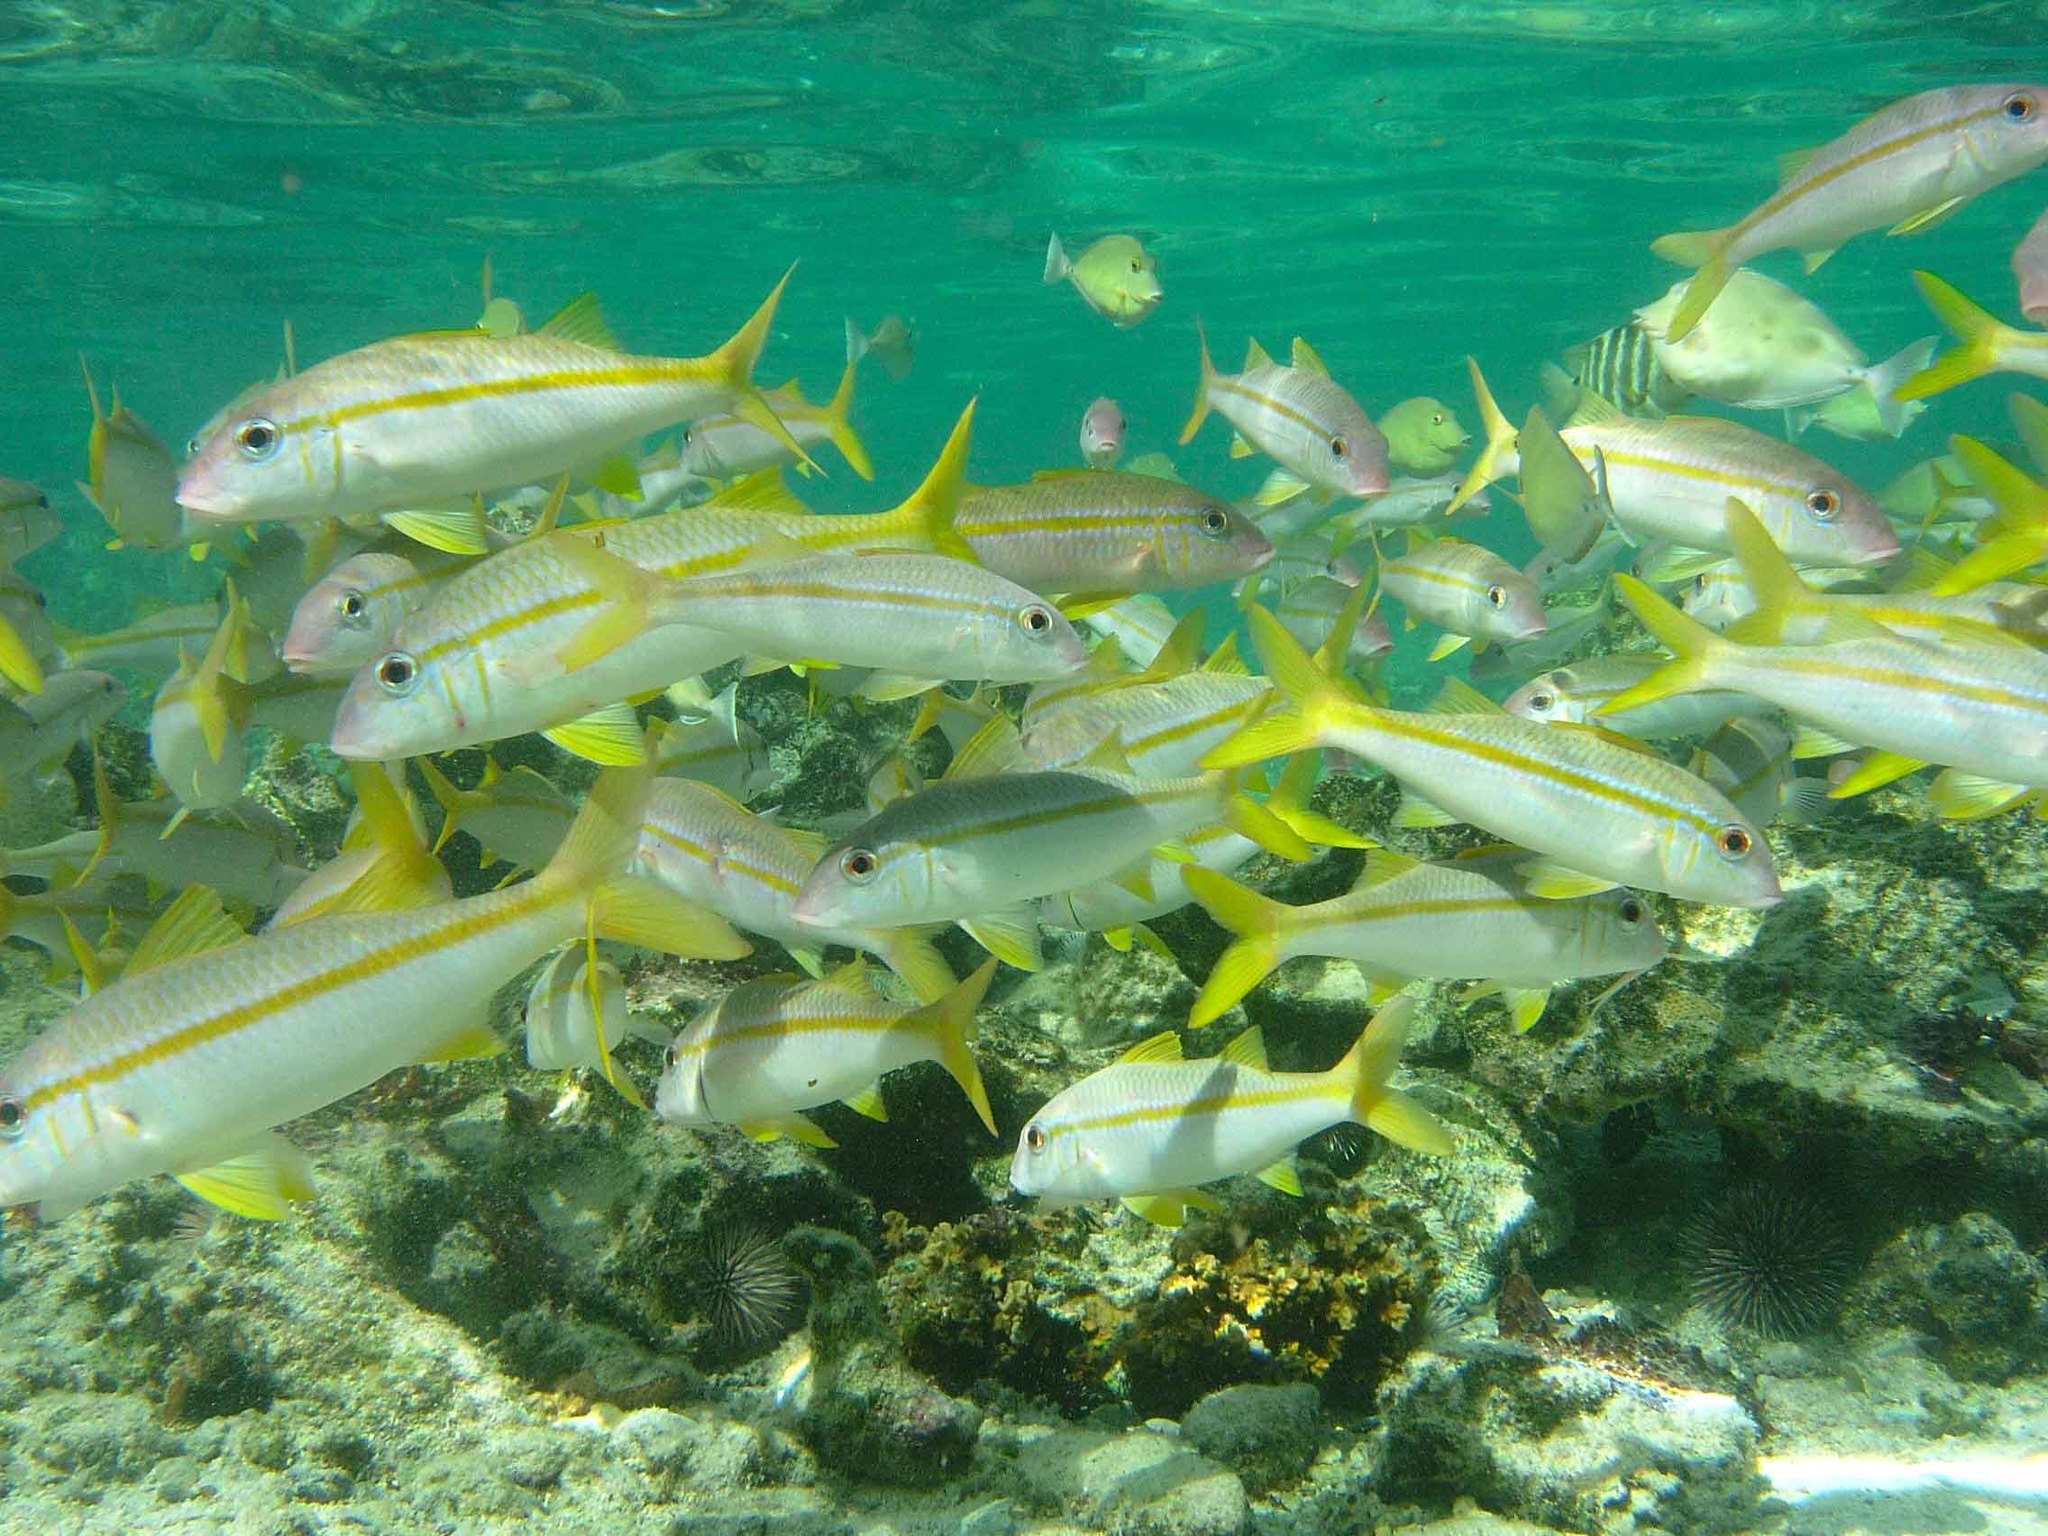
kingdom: Animalia
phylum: Chordata
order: Perciformes
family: Mullidae
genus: Mulloidichthys
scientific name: Mulloidichthys vanicolensis
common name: Yellowfin goatfish
